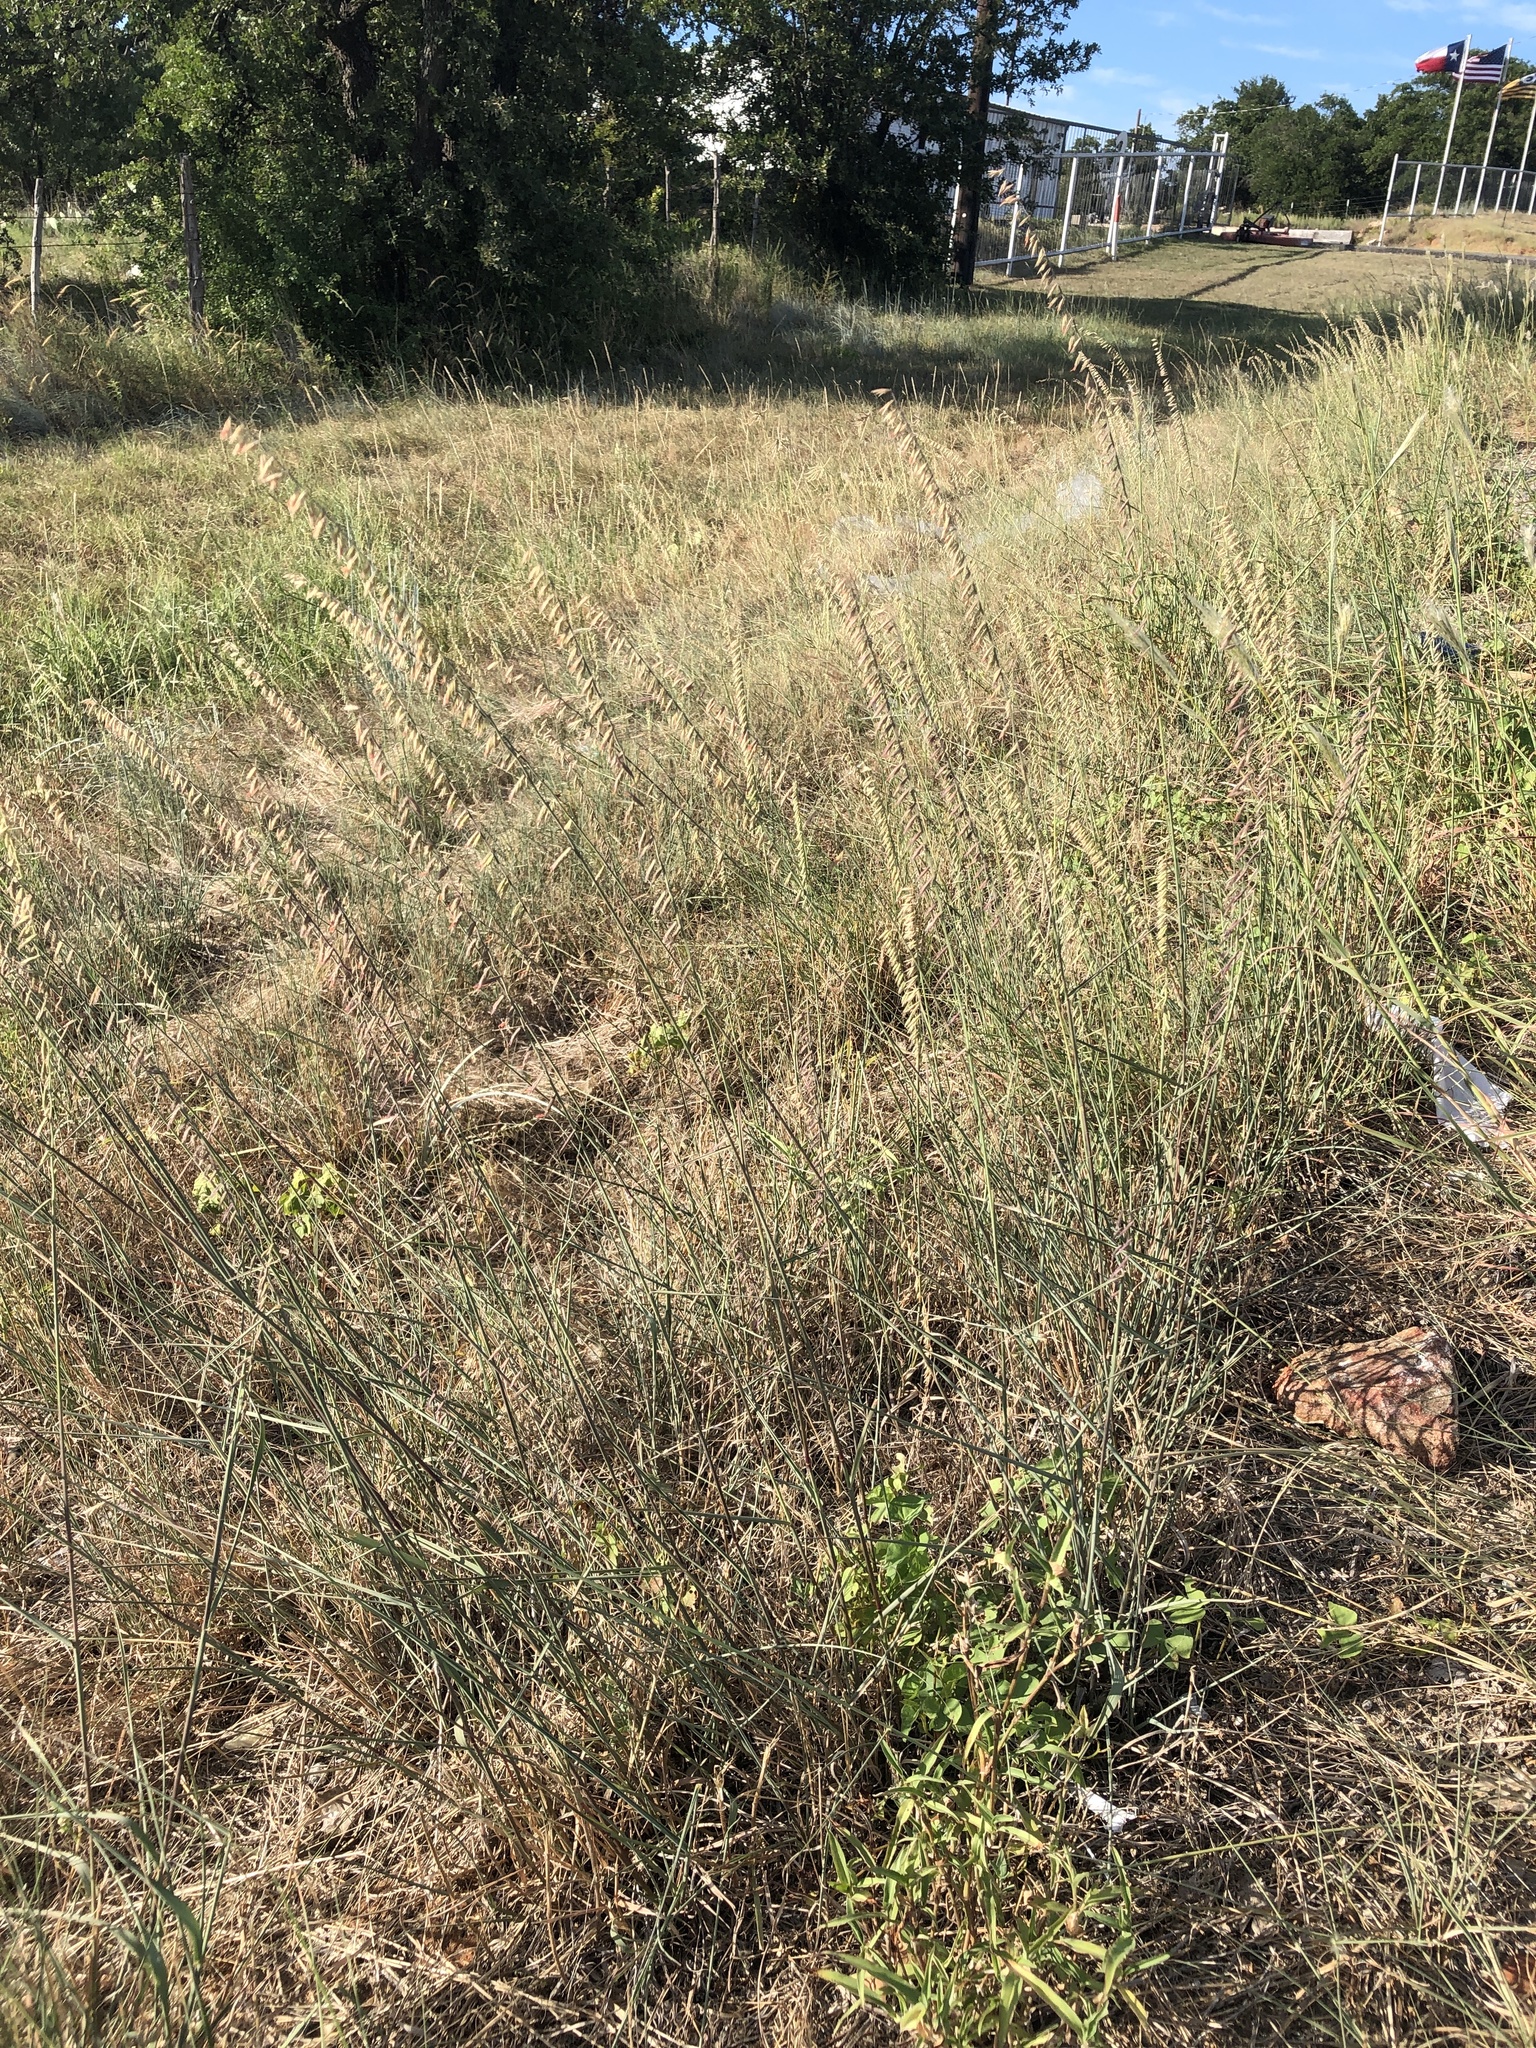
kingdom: Plantae
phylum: Tracheophyta
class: Liliopsida
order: Poales
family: Poaceae
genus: Bouteloua
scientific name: Bouteloua curtipendula
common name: Side-oats grama
